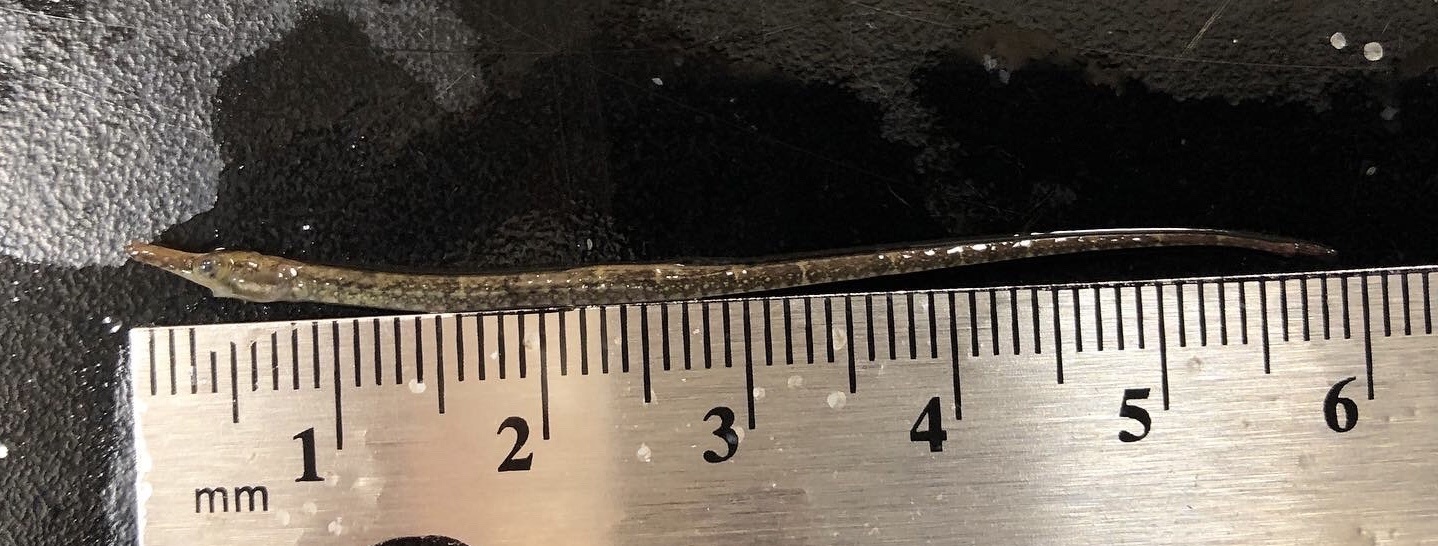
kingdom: Animalia
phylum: Chordata
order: Syngnathiformes
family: Syngnathidae
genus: Syngnathus
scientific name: Syngnathus scovelli
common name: American gulf pipefish
